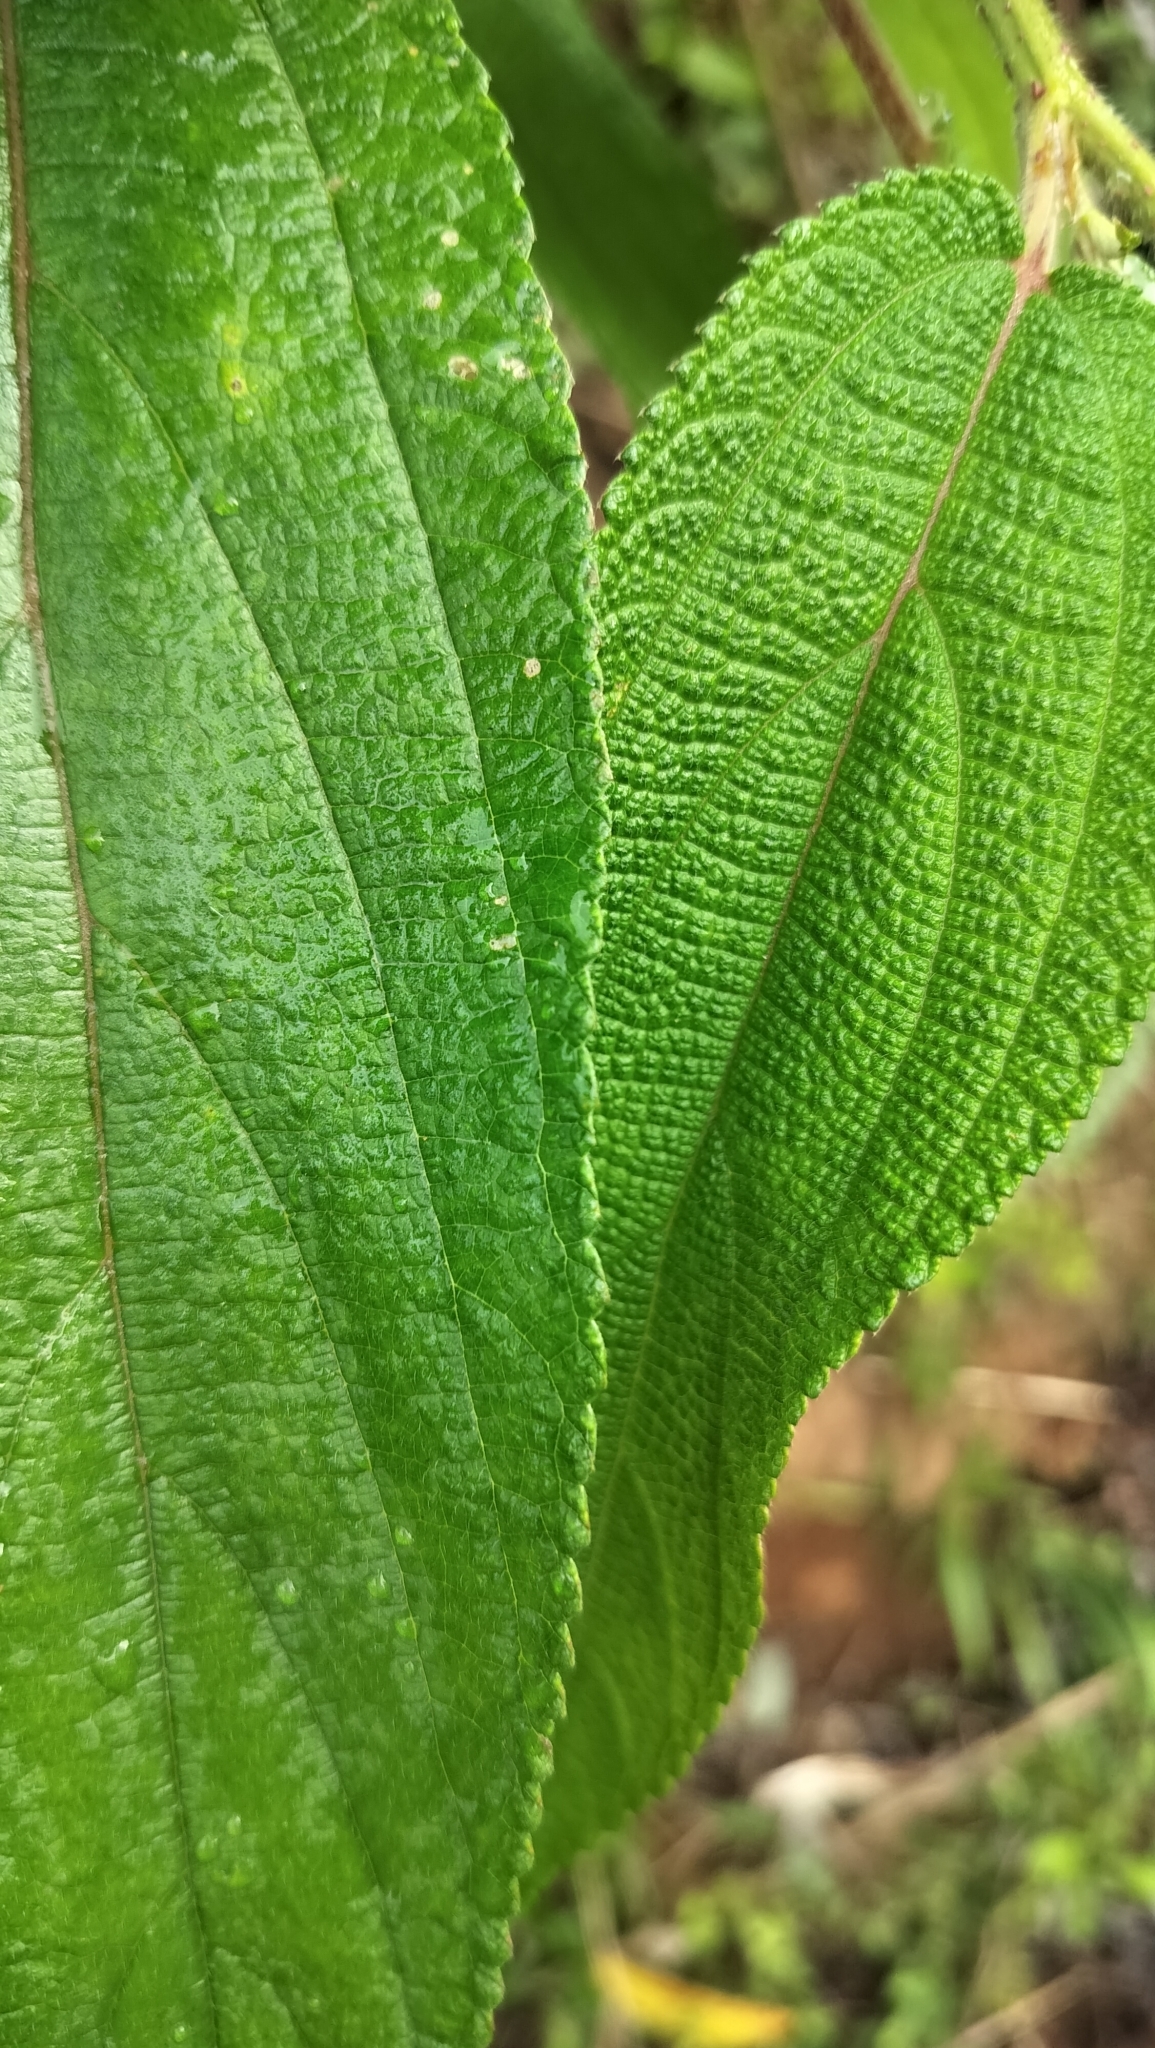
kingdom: Plantae
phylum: Tracheophyta
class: Magnoliopsida
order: Rosales
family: Urticaceae
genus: Debregeasia
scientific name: Debregeasia longifolia
